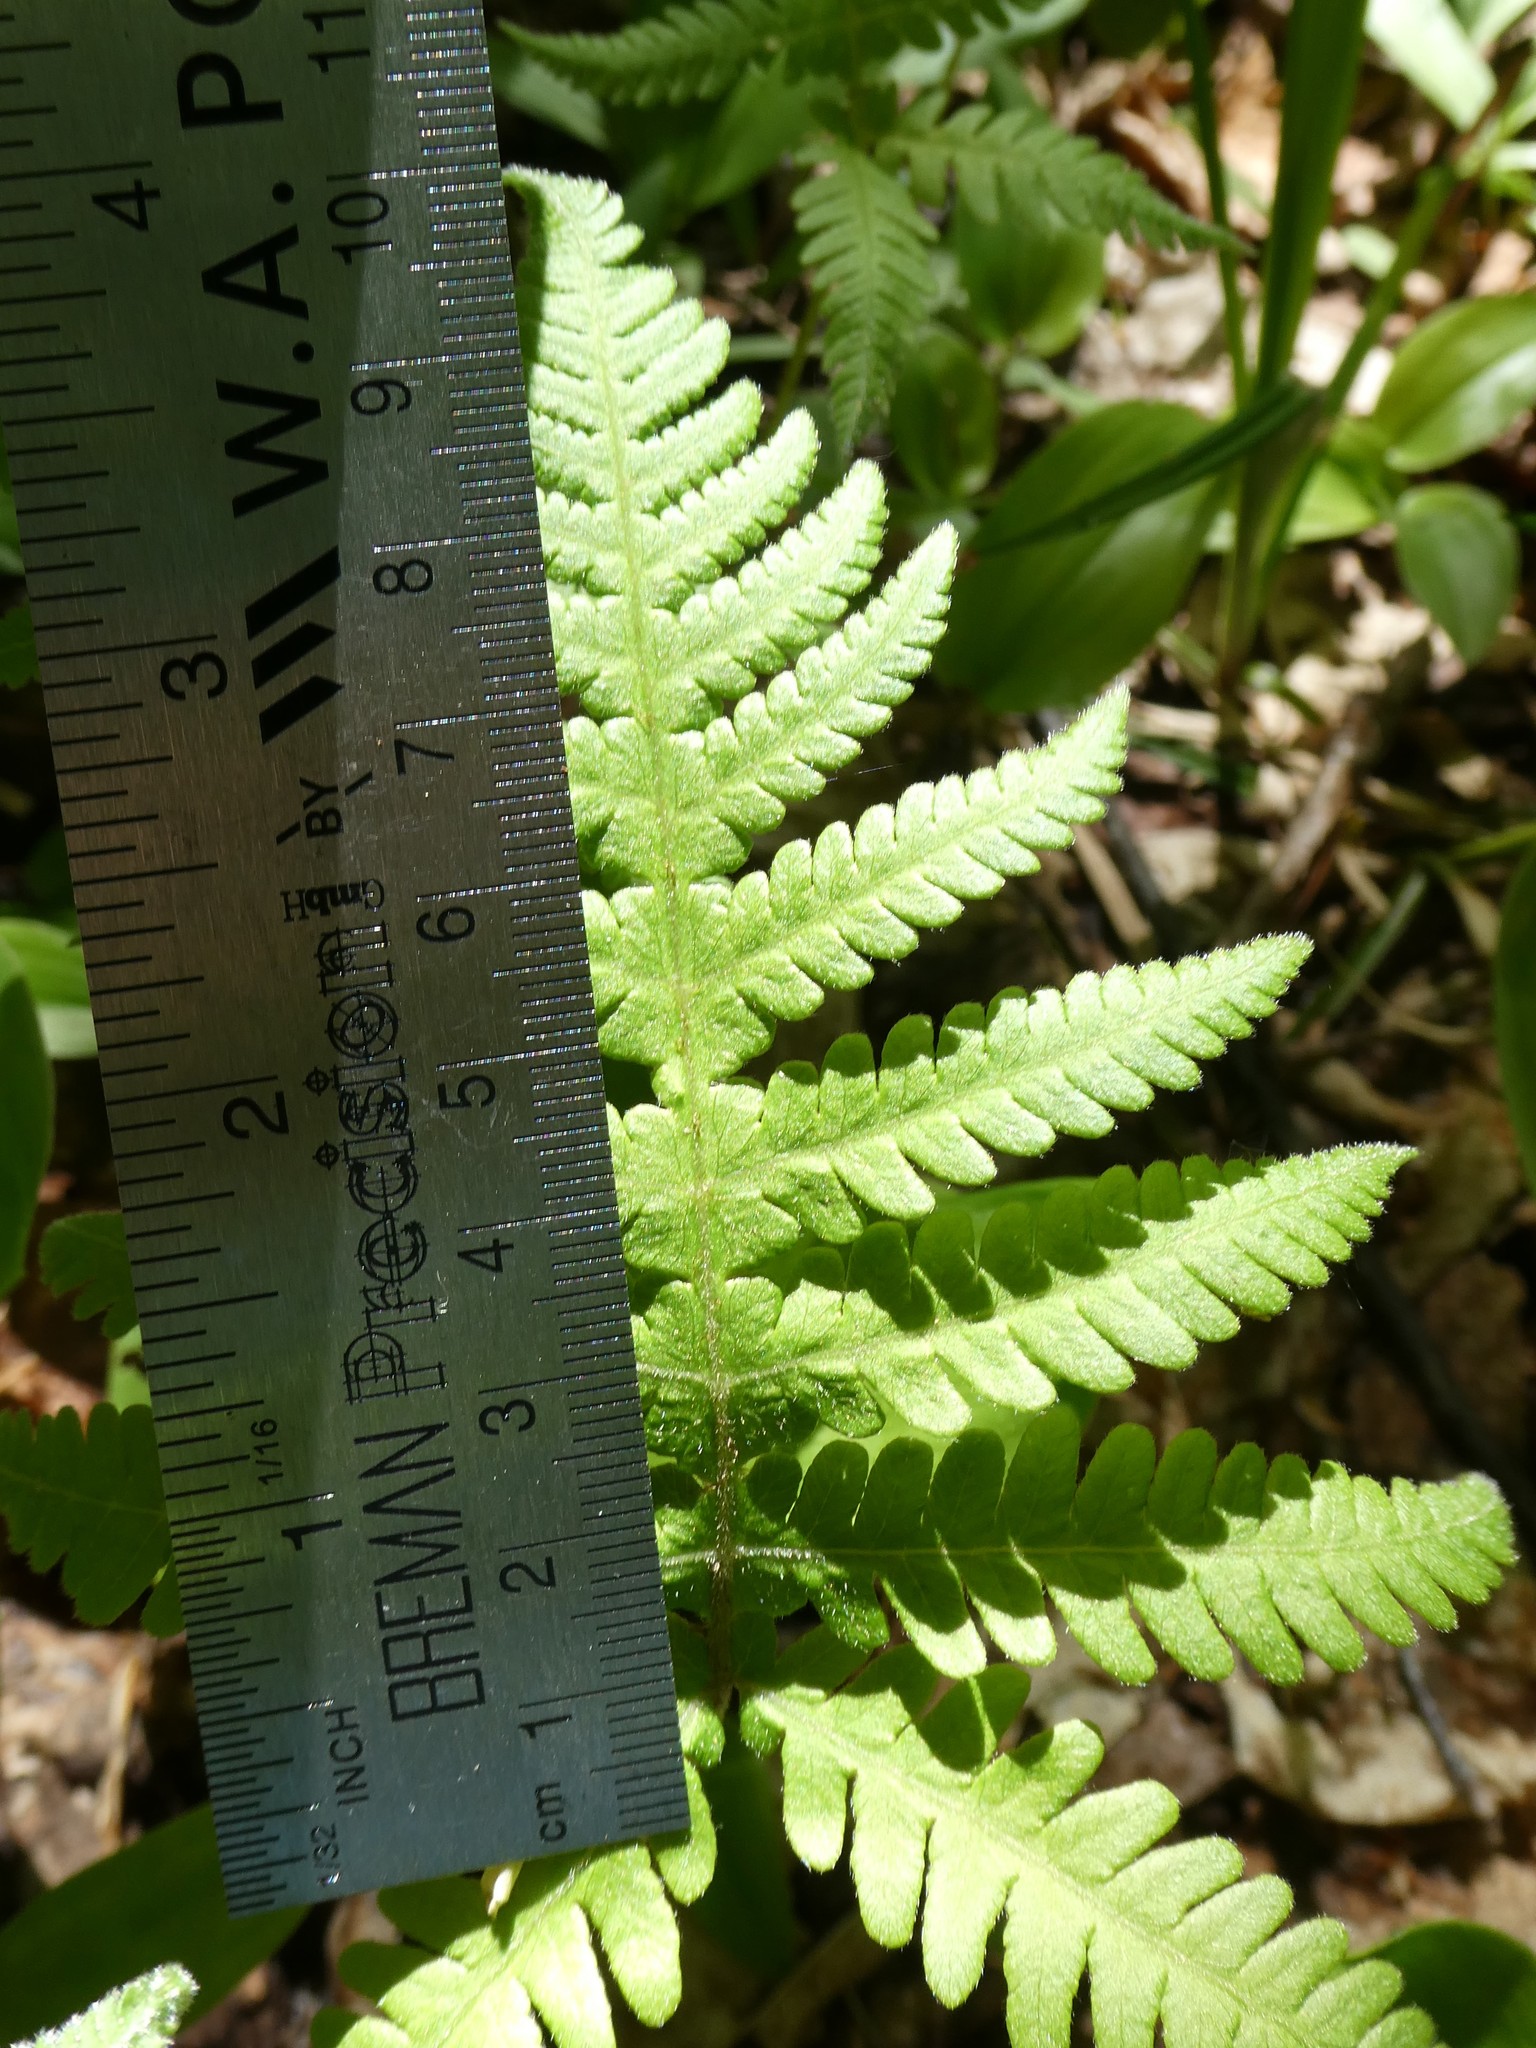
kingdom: Plantae
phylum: Tracheophyta
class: Polypodiopsida
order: Polypodiales
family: Thelypteridaceae
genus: Phegopteris
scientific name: Phegopteris connectilis
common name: Beech fern
